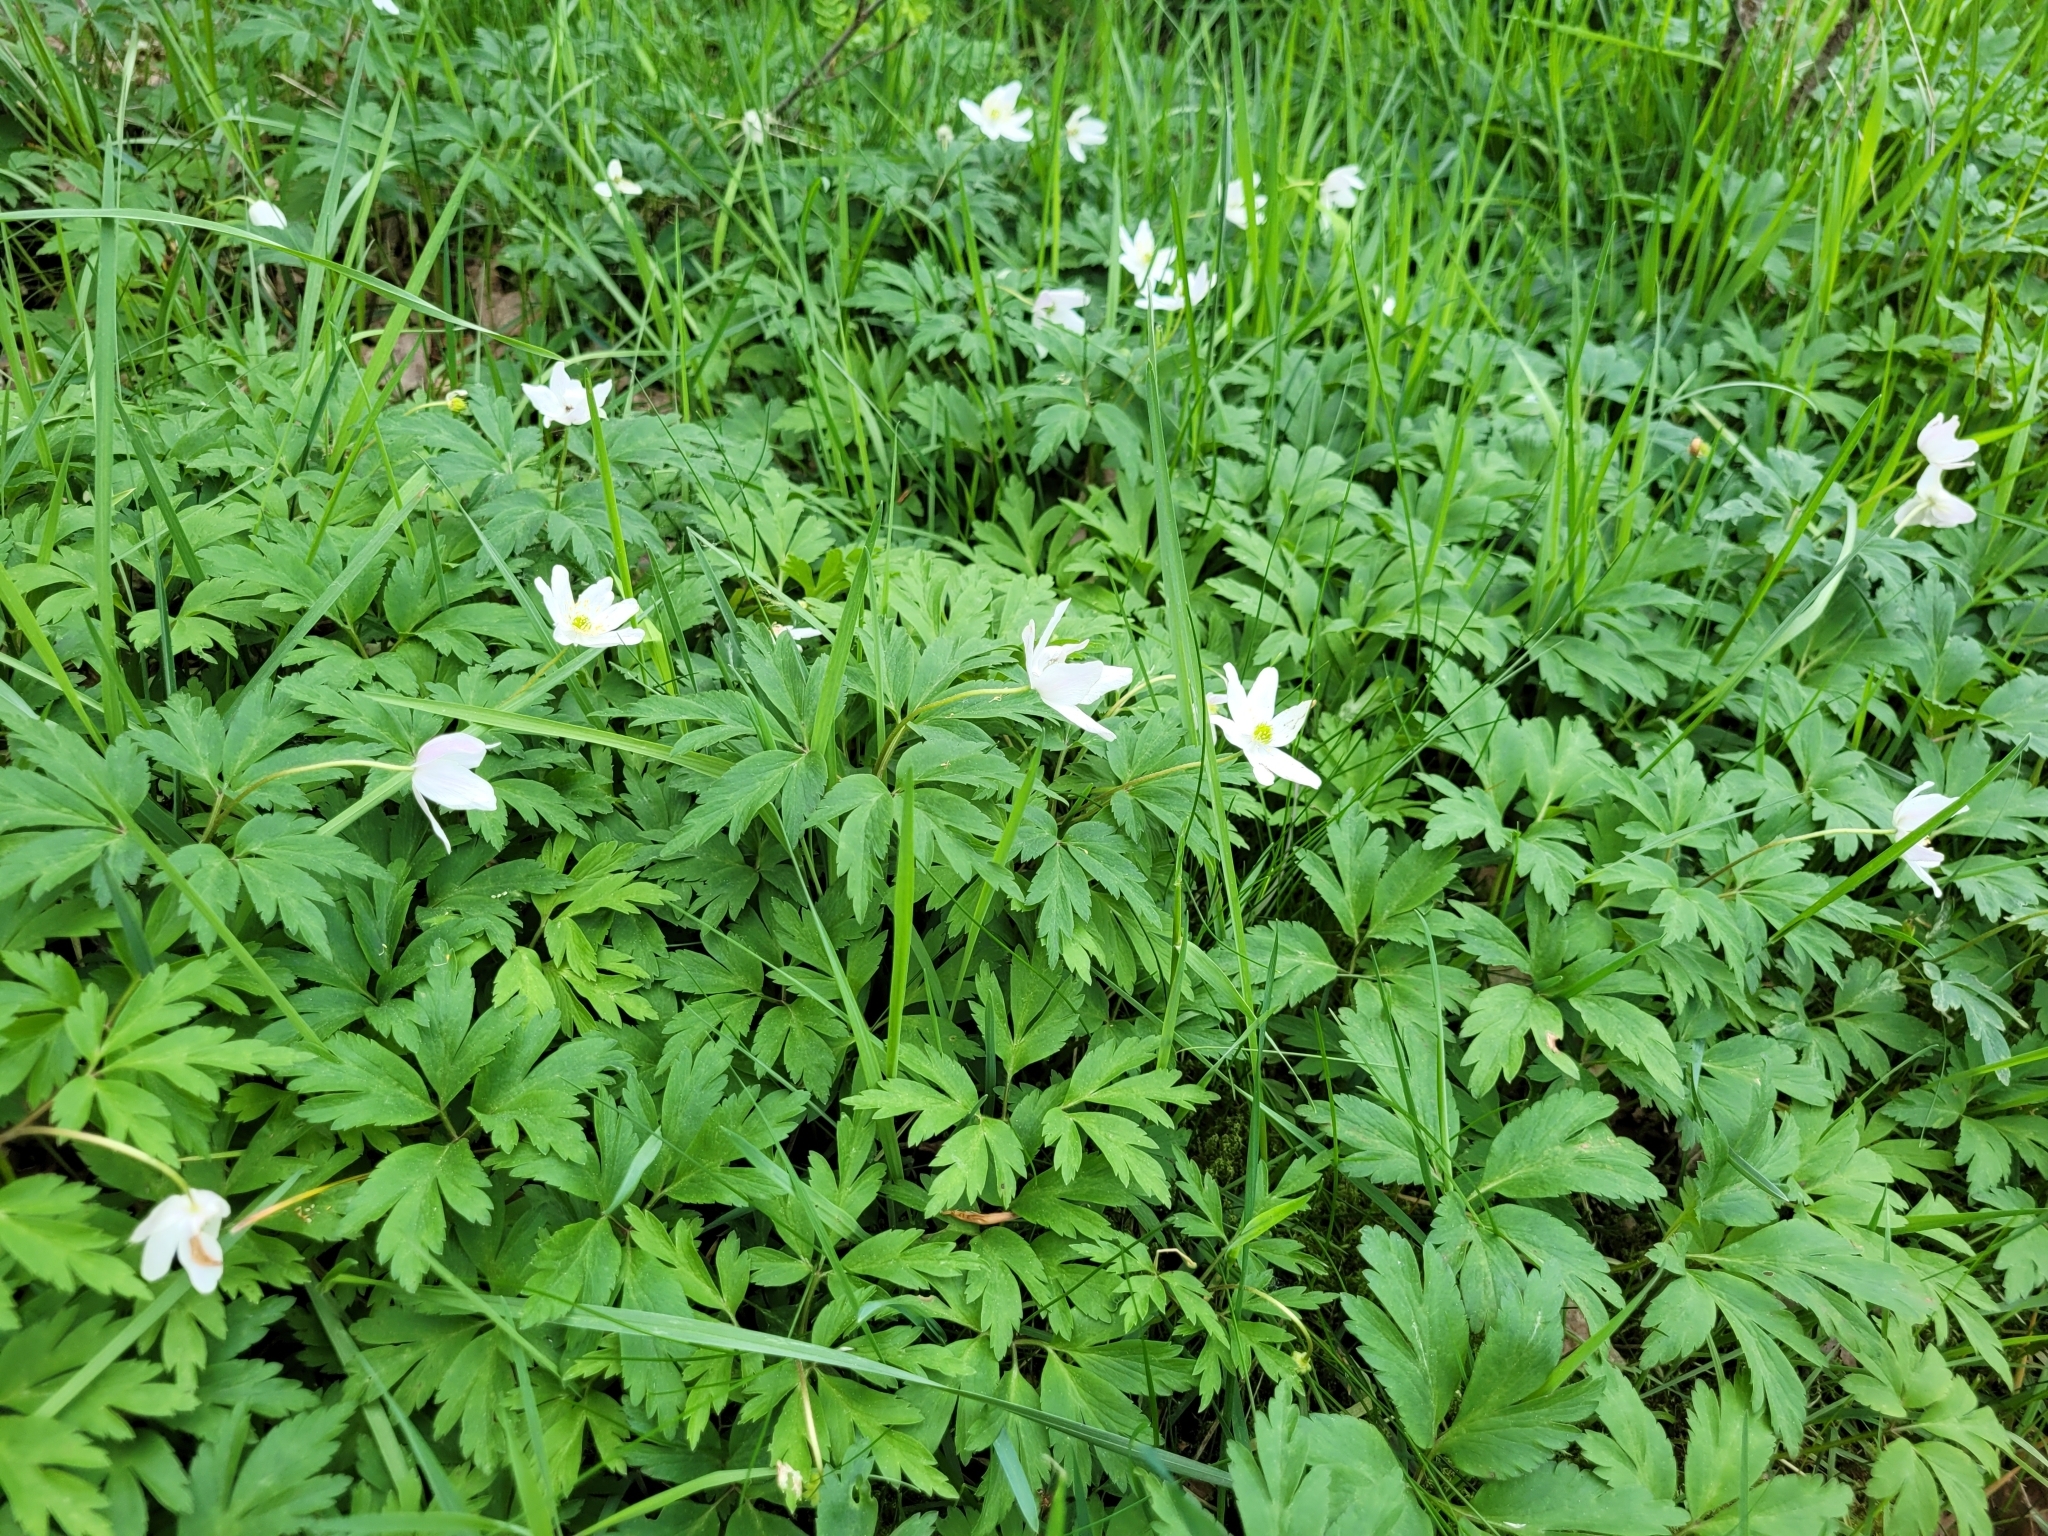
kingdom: Plantae
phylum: Tracheophyta
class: Magnoliopsida
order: Ranunculales
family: Ranunculaceae
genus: Anemone
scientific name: Anemone nemorosa
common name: Wood anemone
